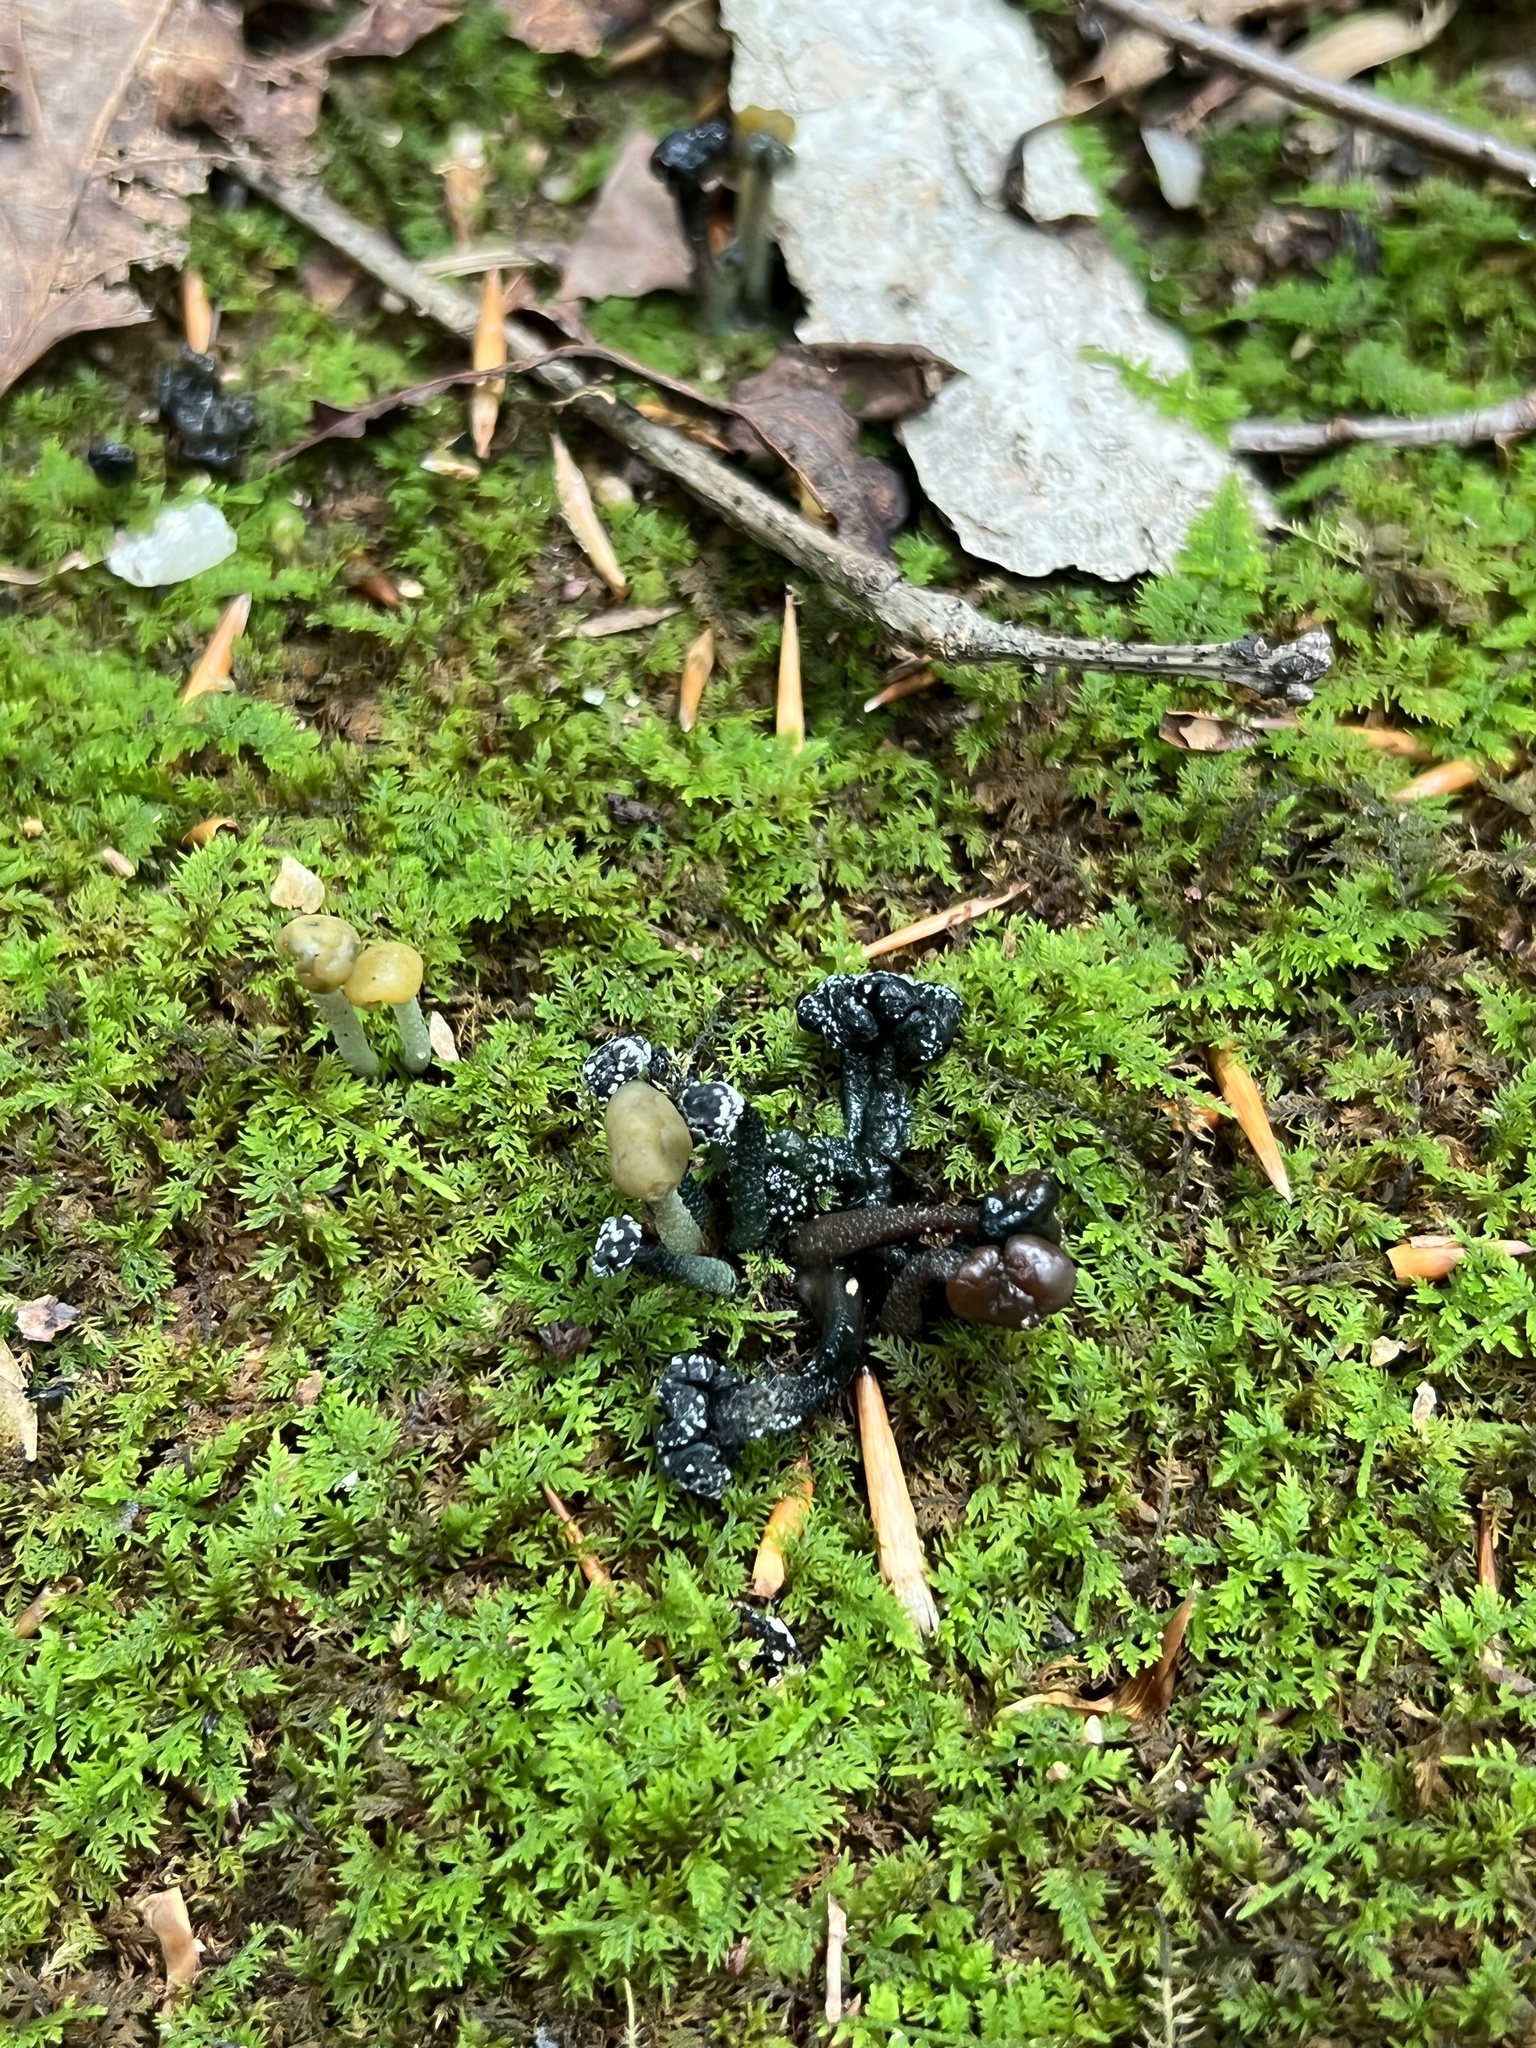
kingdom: Fungi
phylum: Ascomycota
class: Sordariomycetes
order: Hypocreales
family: Hypocreaceae
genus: Hypomyces
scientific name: Hypomyces leotiicola
